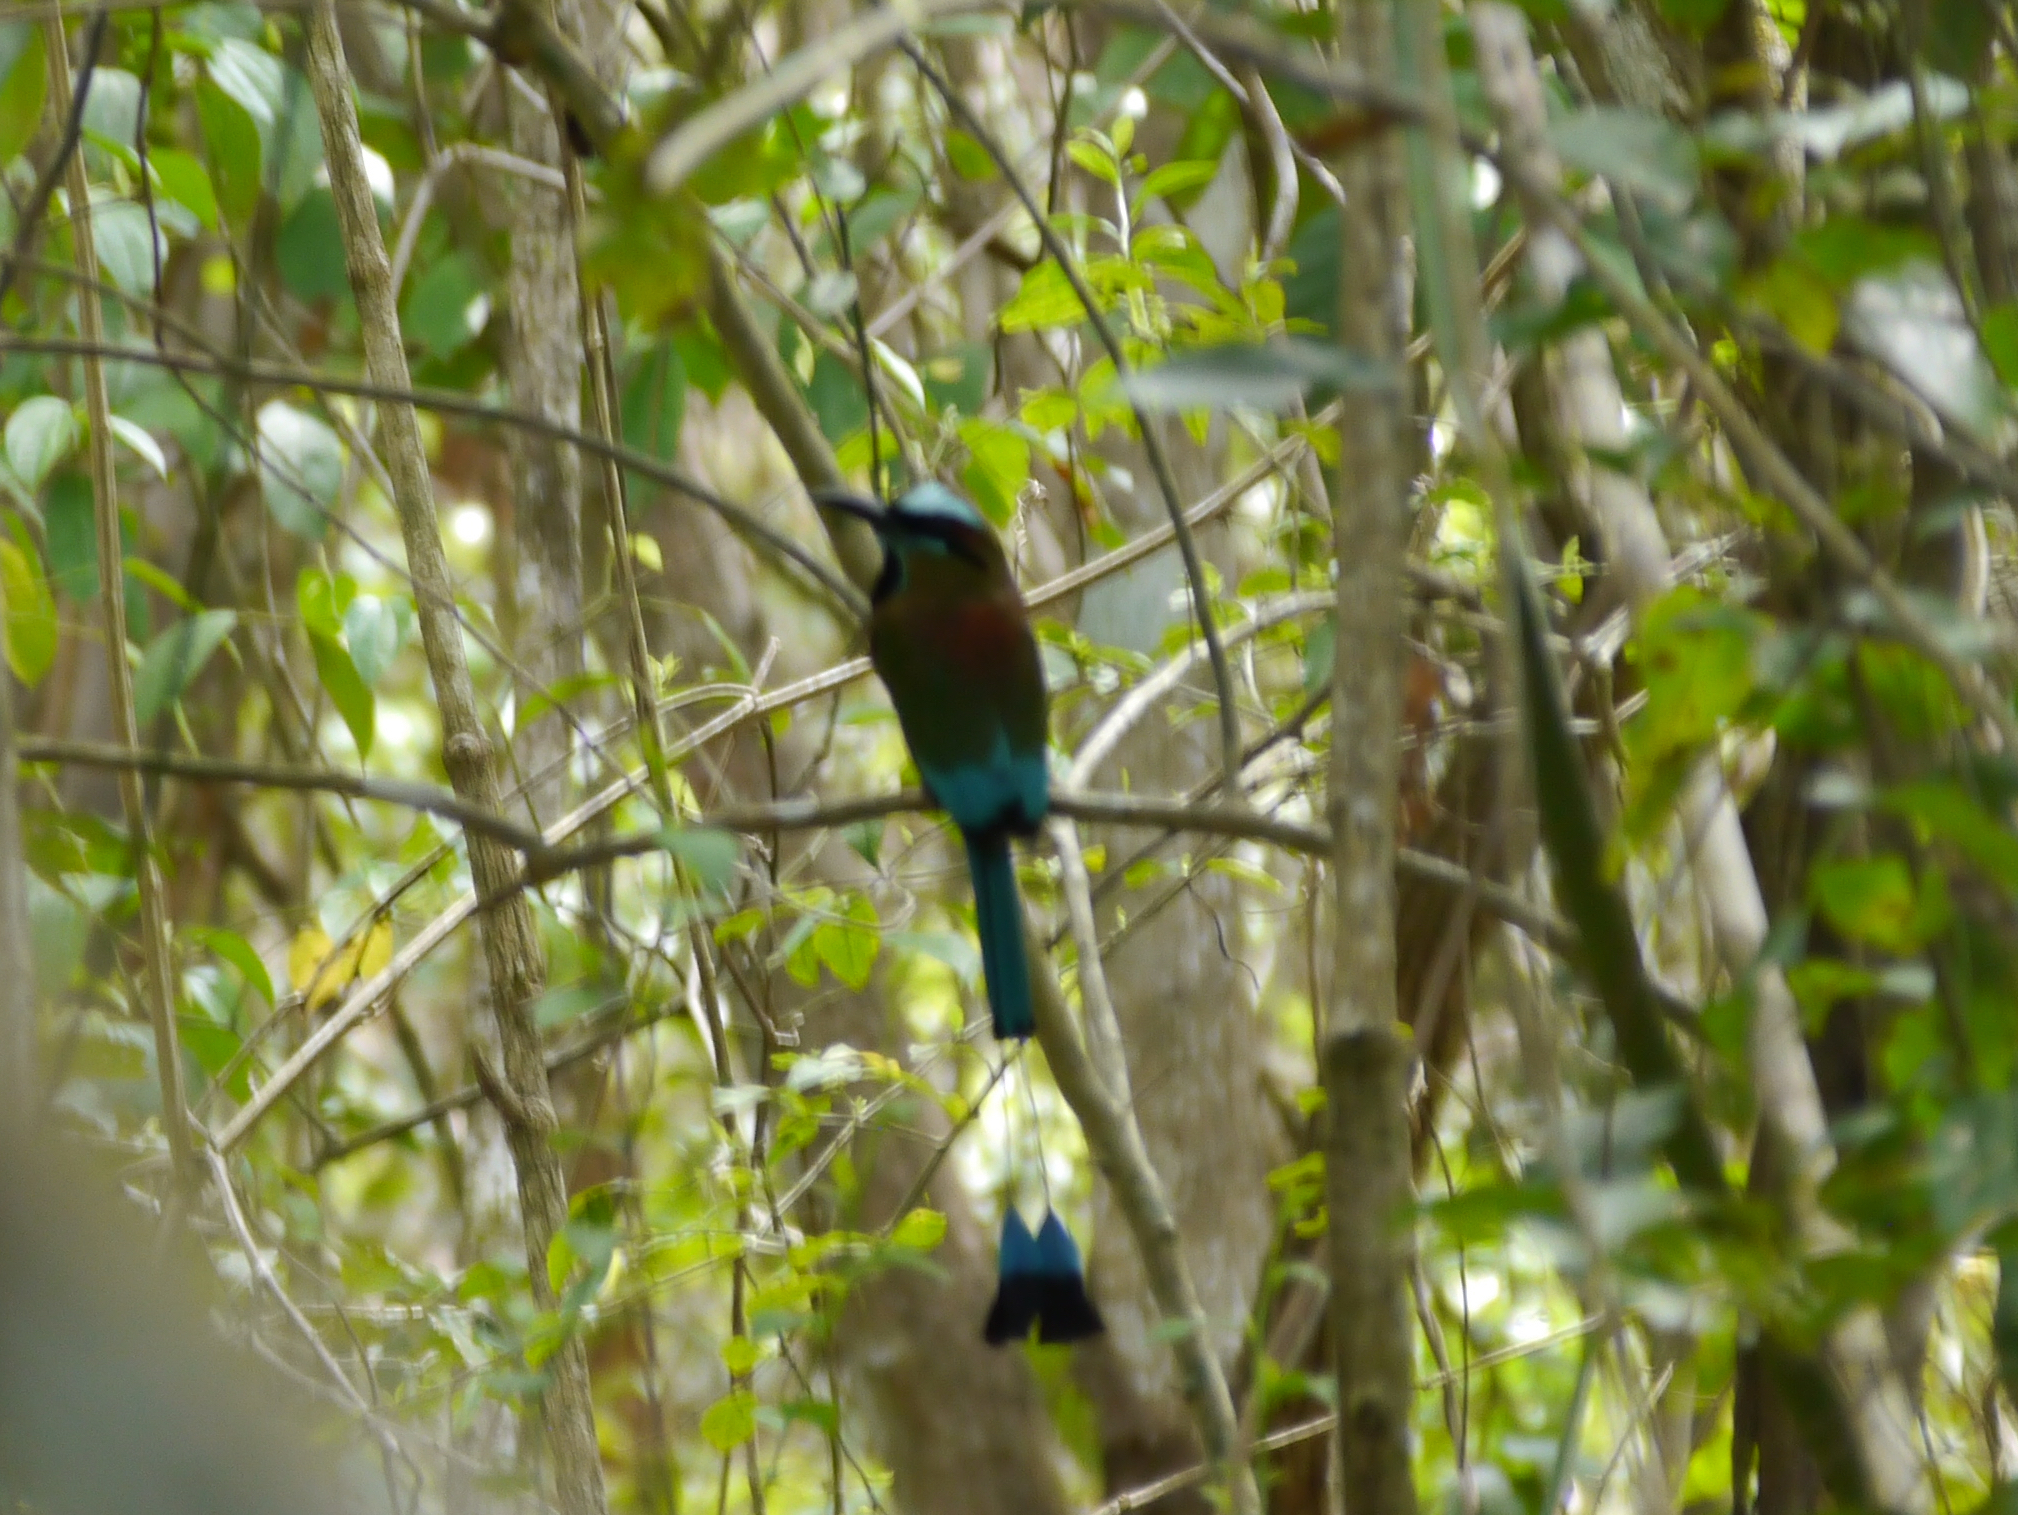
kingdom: Animalia
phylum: Chordata
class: Aves
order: Coraciiformes
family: Momotidae
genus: Eumomota
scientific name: Eumomota superciliosa
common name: Turquoise-browed motmot
